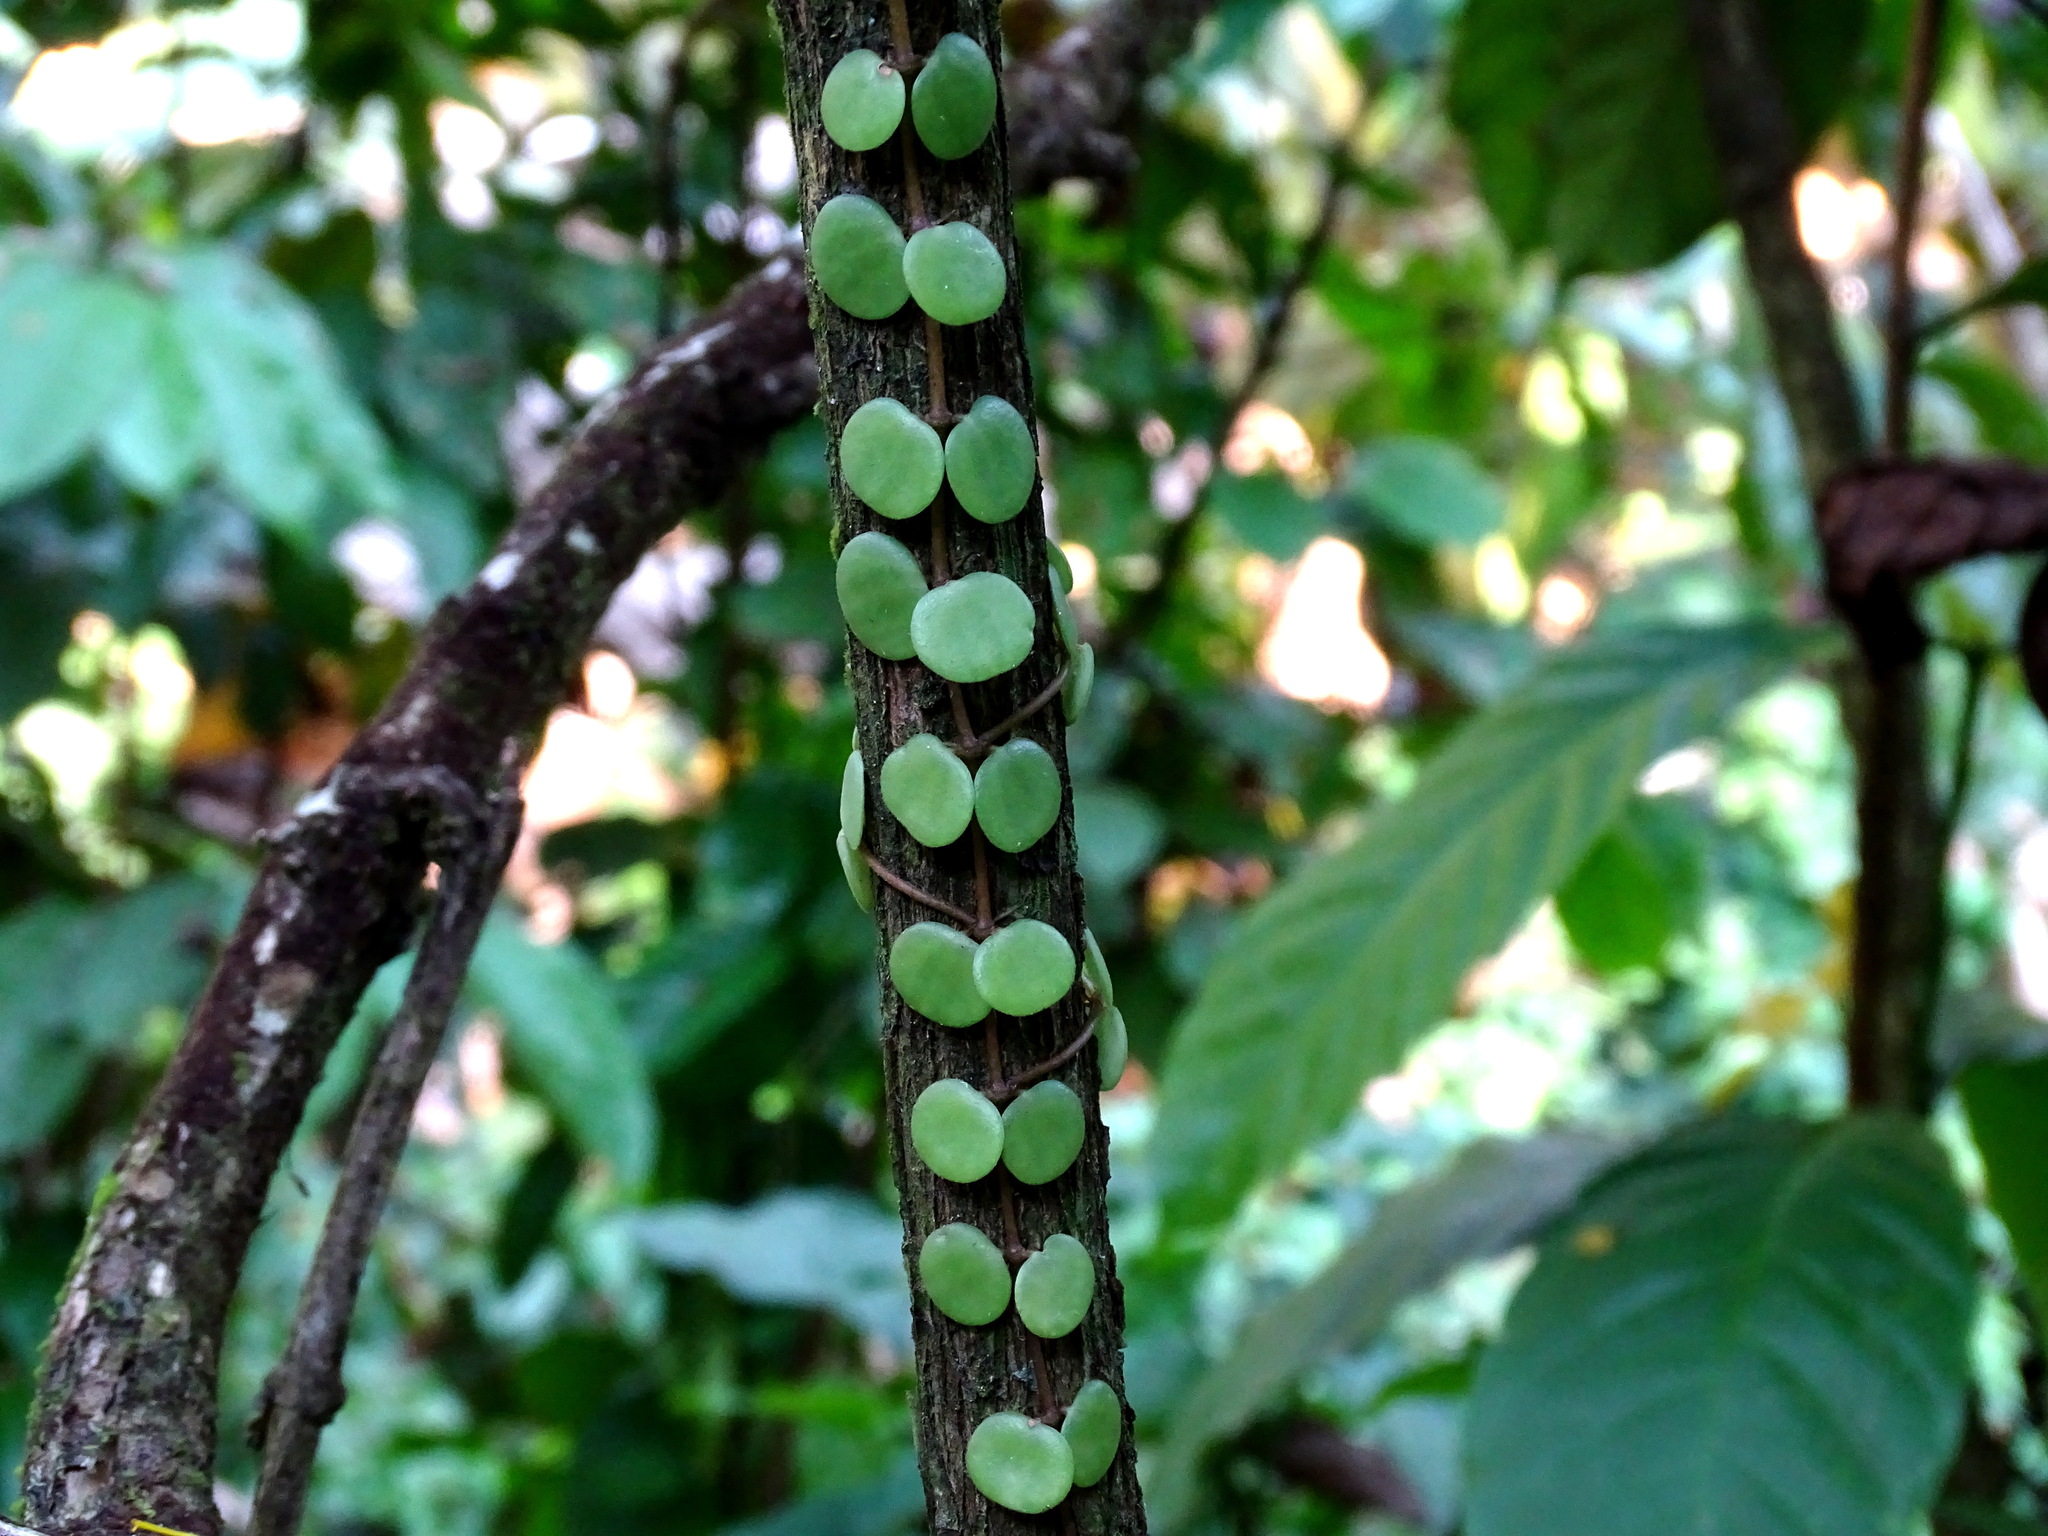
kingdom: Plantae
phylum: Tracheophyta
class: Magnoliopsida
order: Piperales
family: Piperaceae
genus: Peperomia
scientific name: Peperomia cyclophylla
